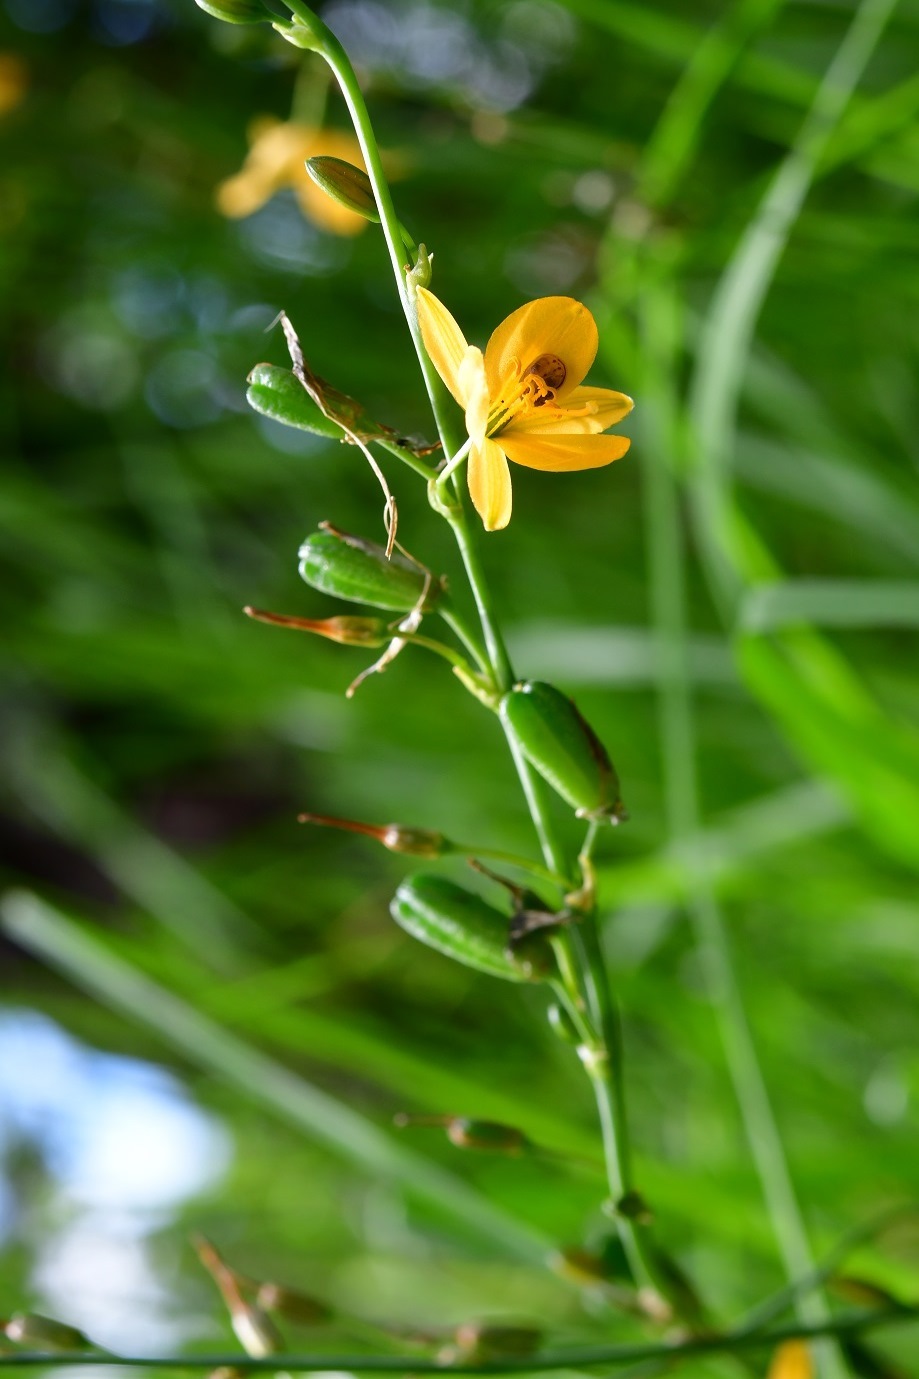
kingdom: Plantae
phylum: Tracheophyta
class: Liliopsida
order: Asparagales
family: Asparagaceae
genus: Echeandia
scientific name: Echeandia skinneri
